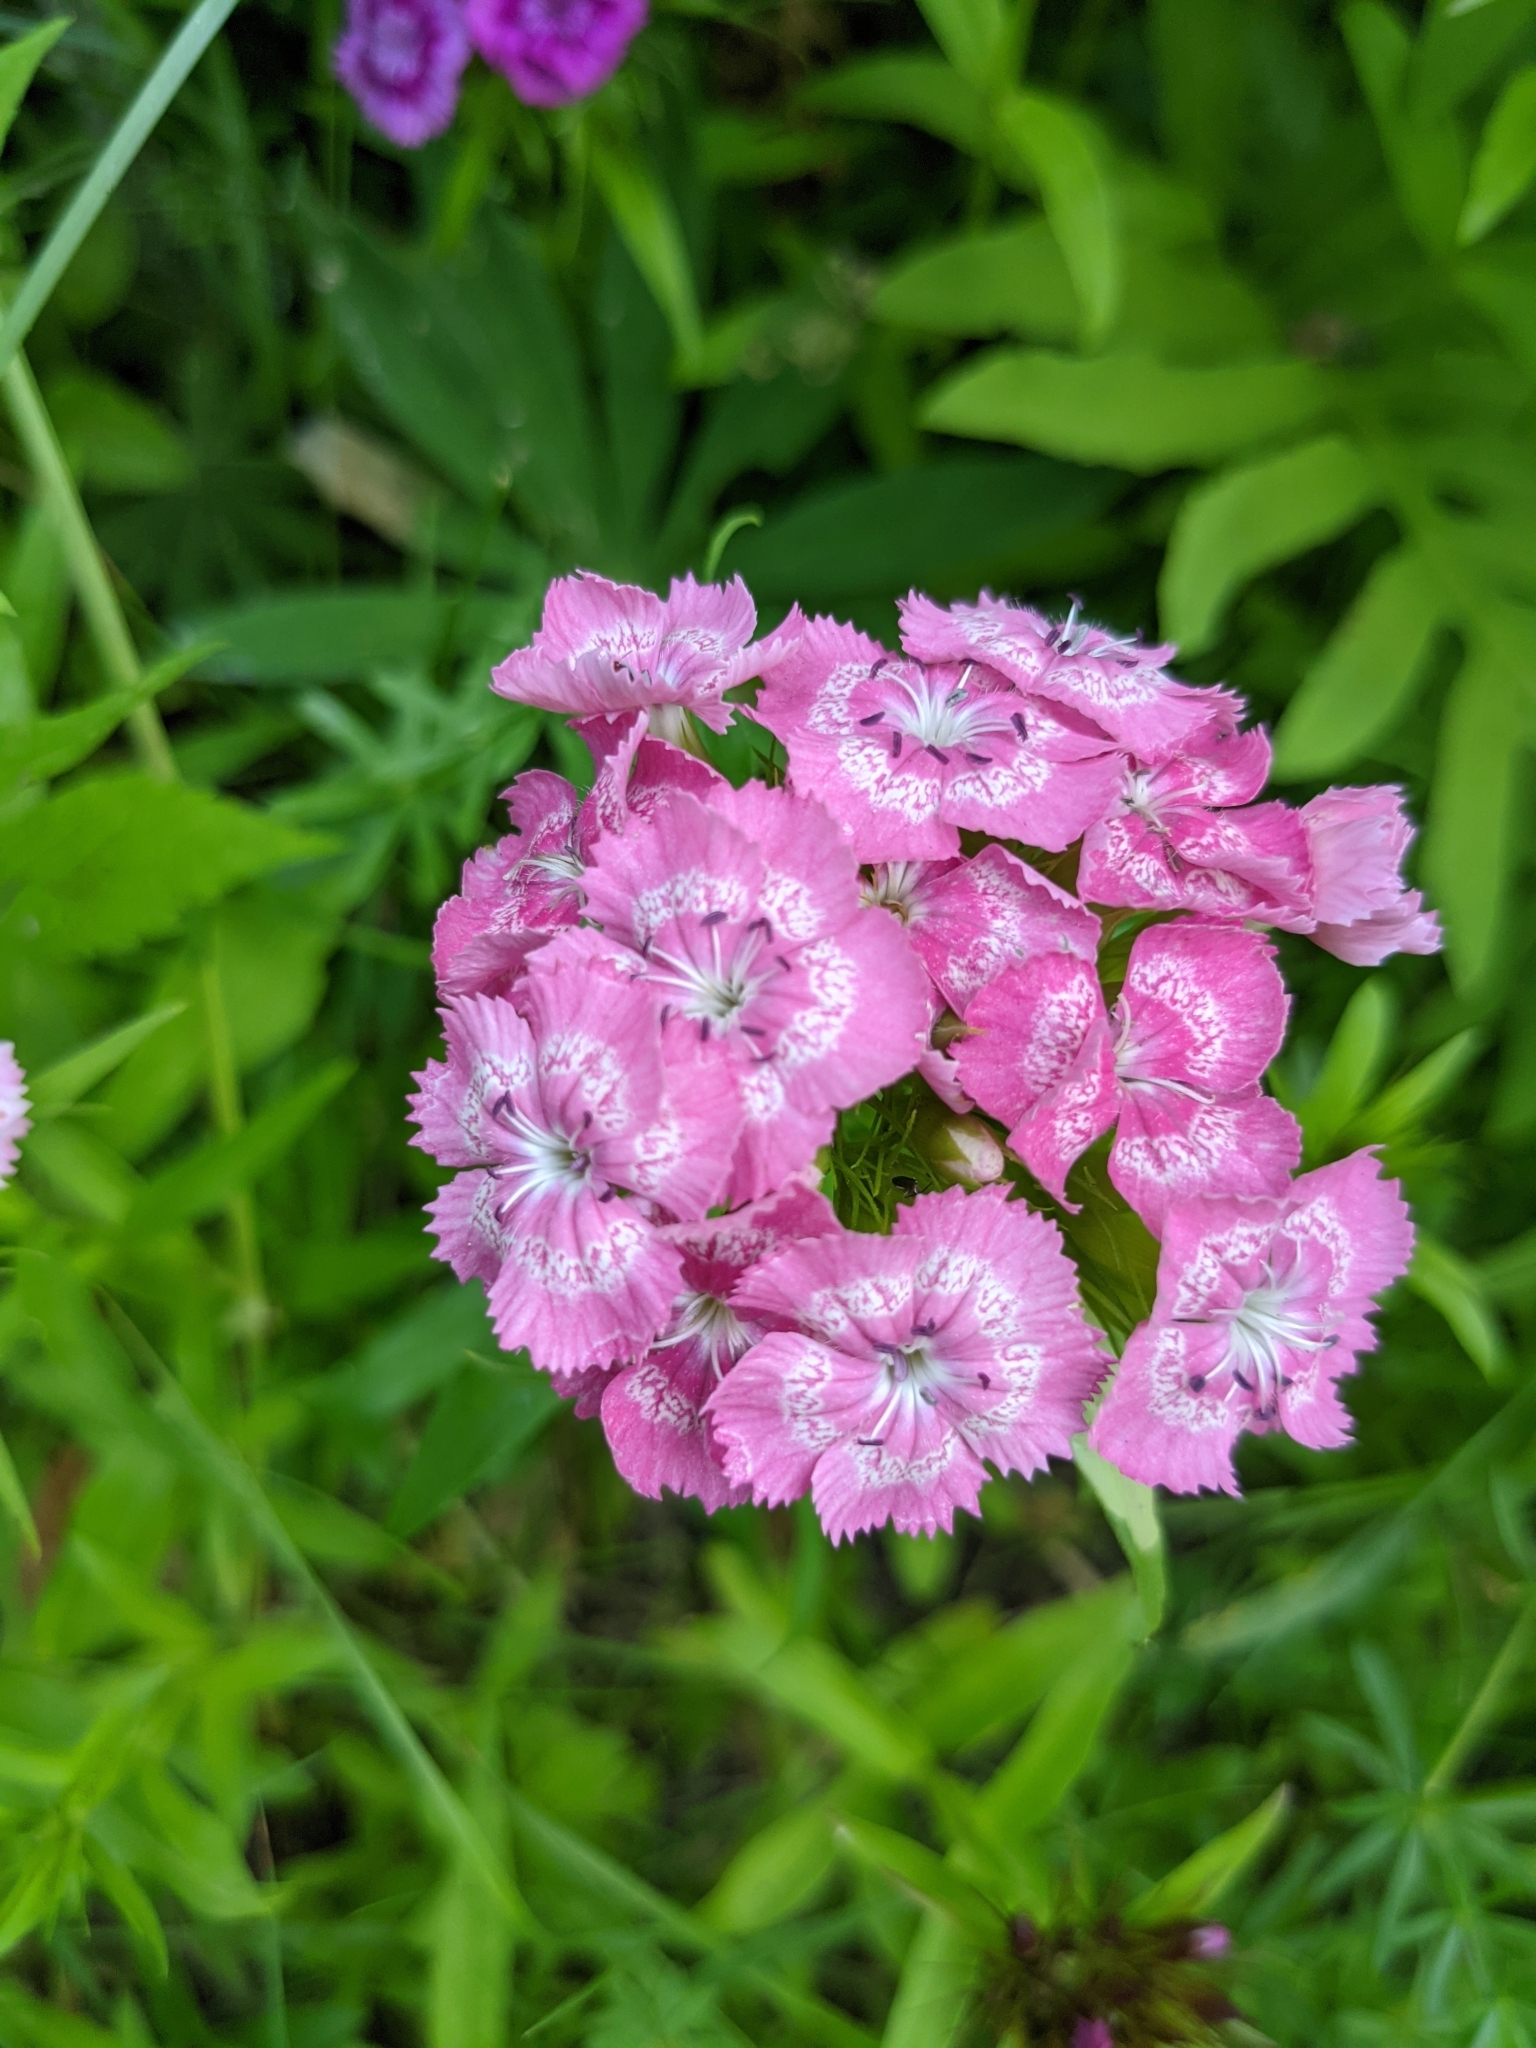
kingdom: Plantae
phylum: Tracheophyta
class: Magnoliopsida
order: Caryophyllales
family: Caryophyllaceae
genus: Dianthus
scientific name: Dianthus barbatus
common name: Sweet-william
